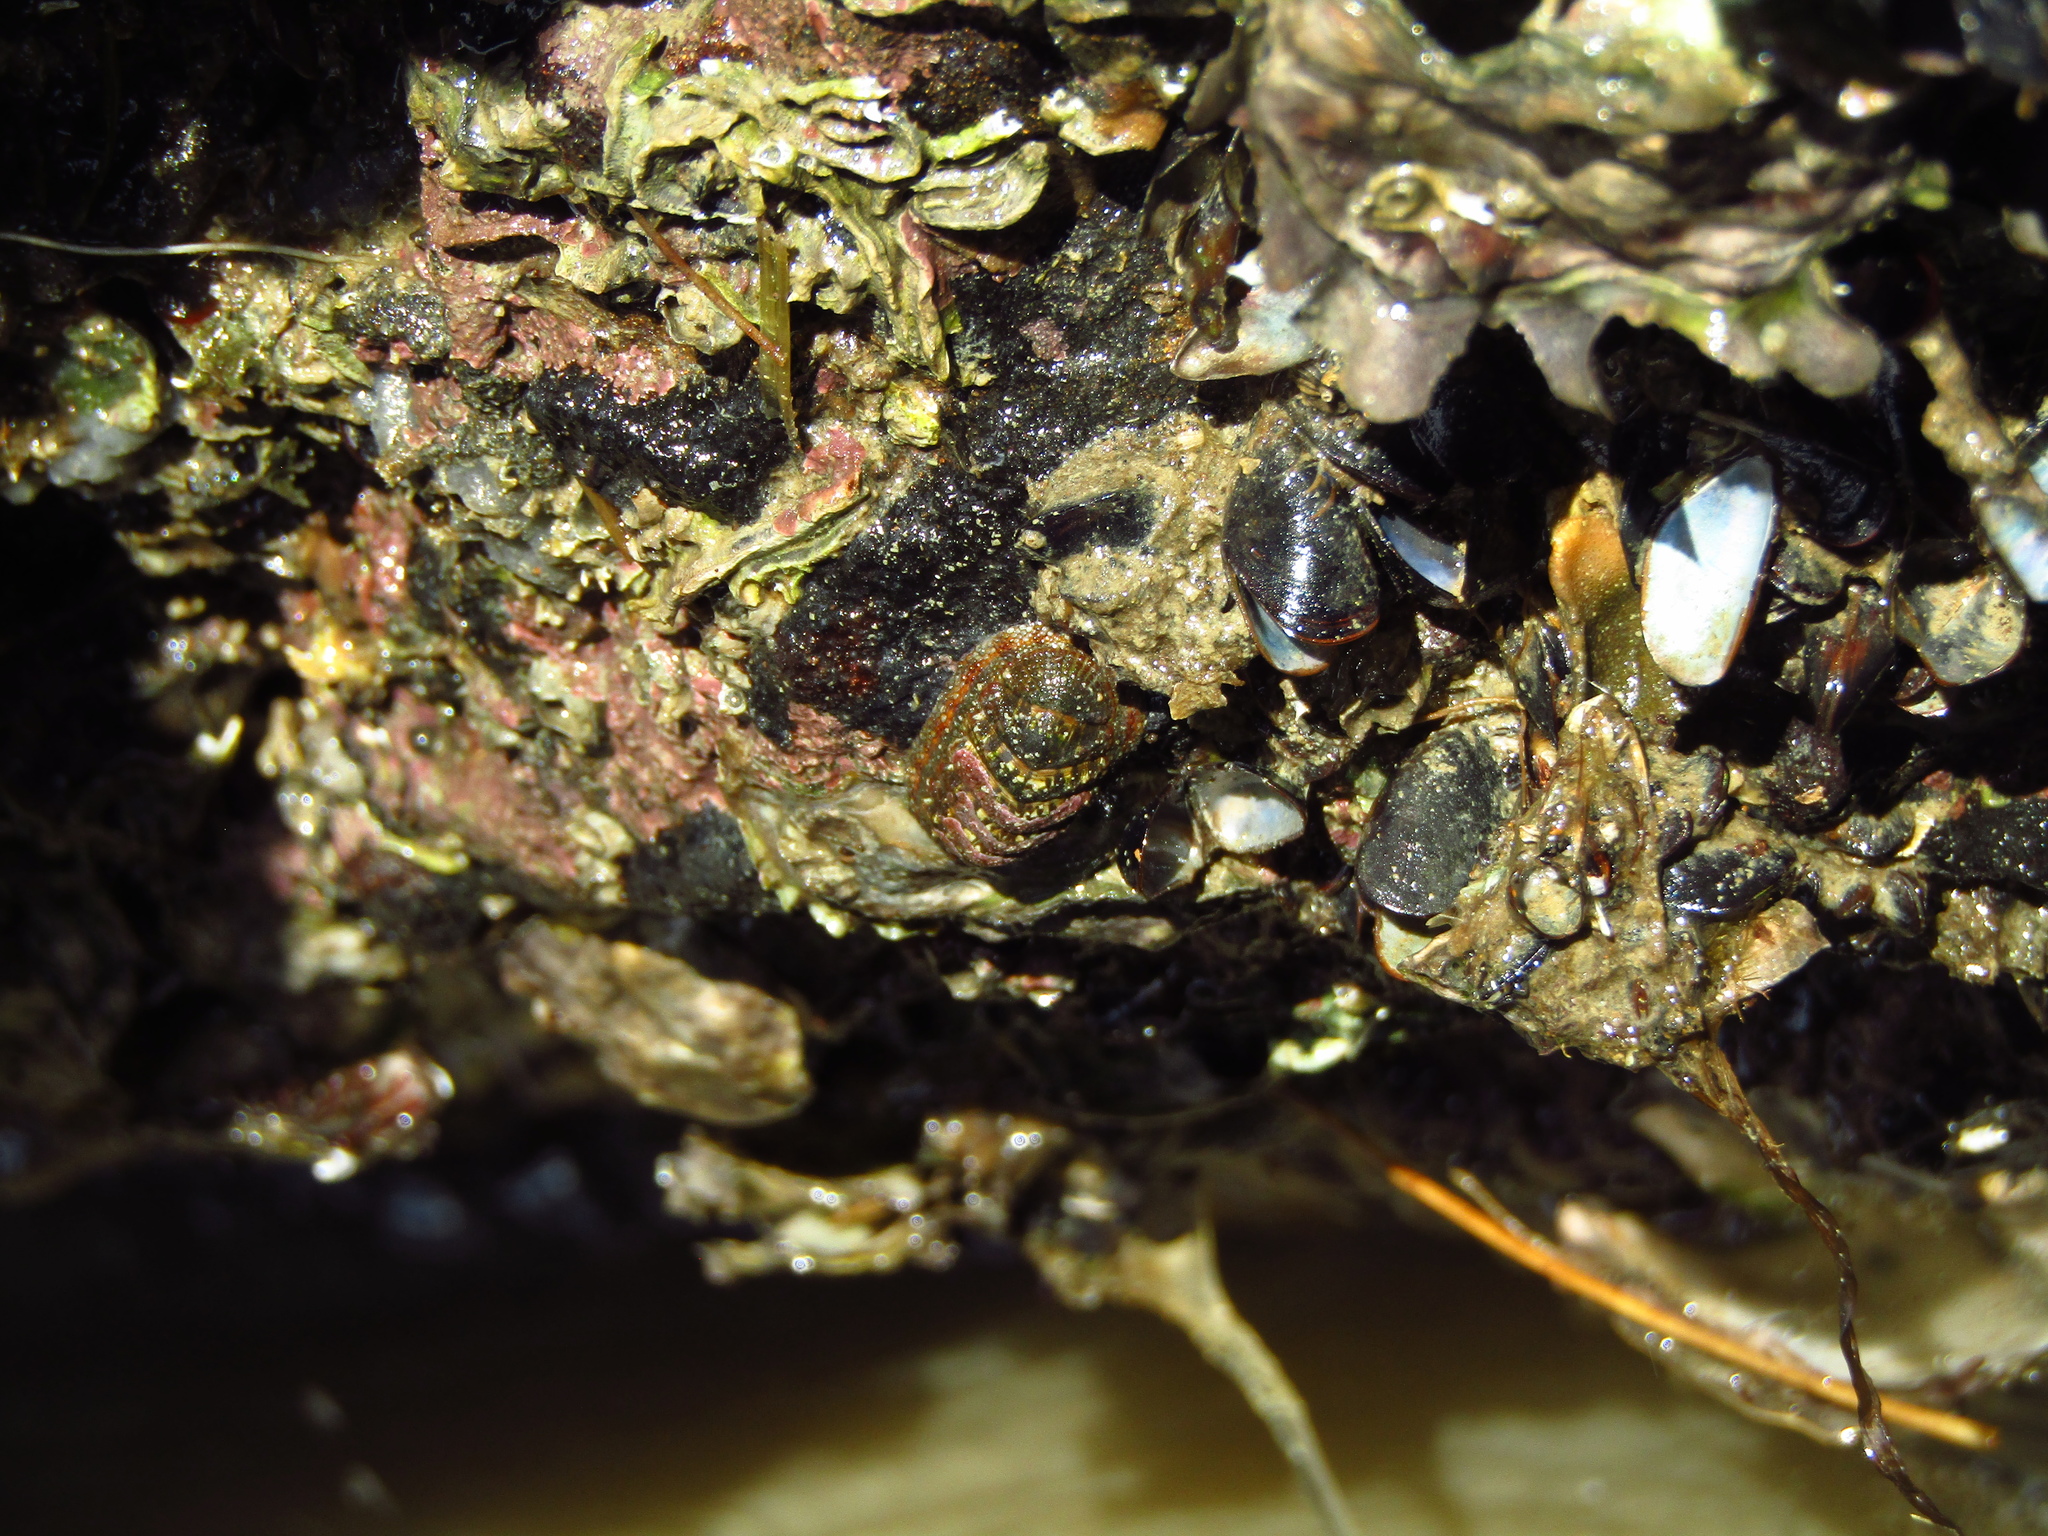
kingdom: Animalia
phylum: Mollusca
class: Polyplacophora
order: Chitonida
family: Chitonidae
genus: Sypharochiton
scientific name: Sypharochiton sinclairi
